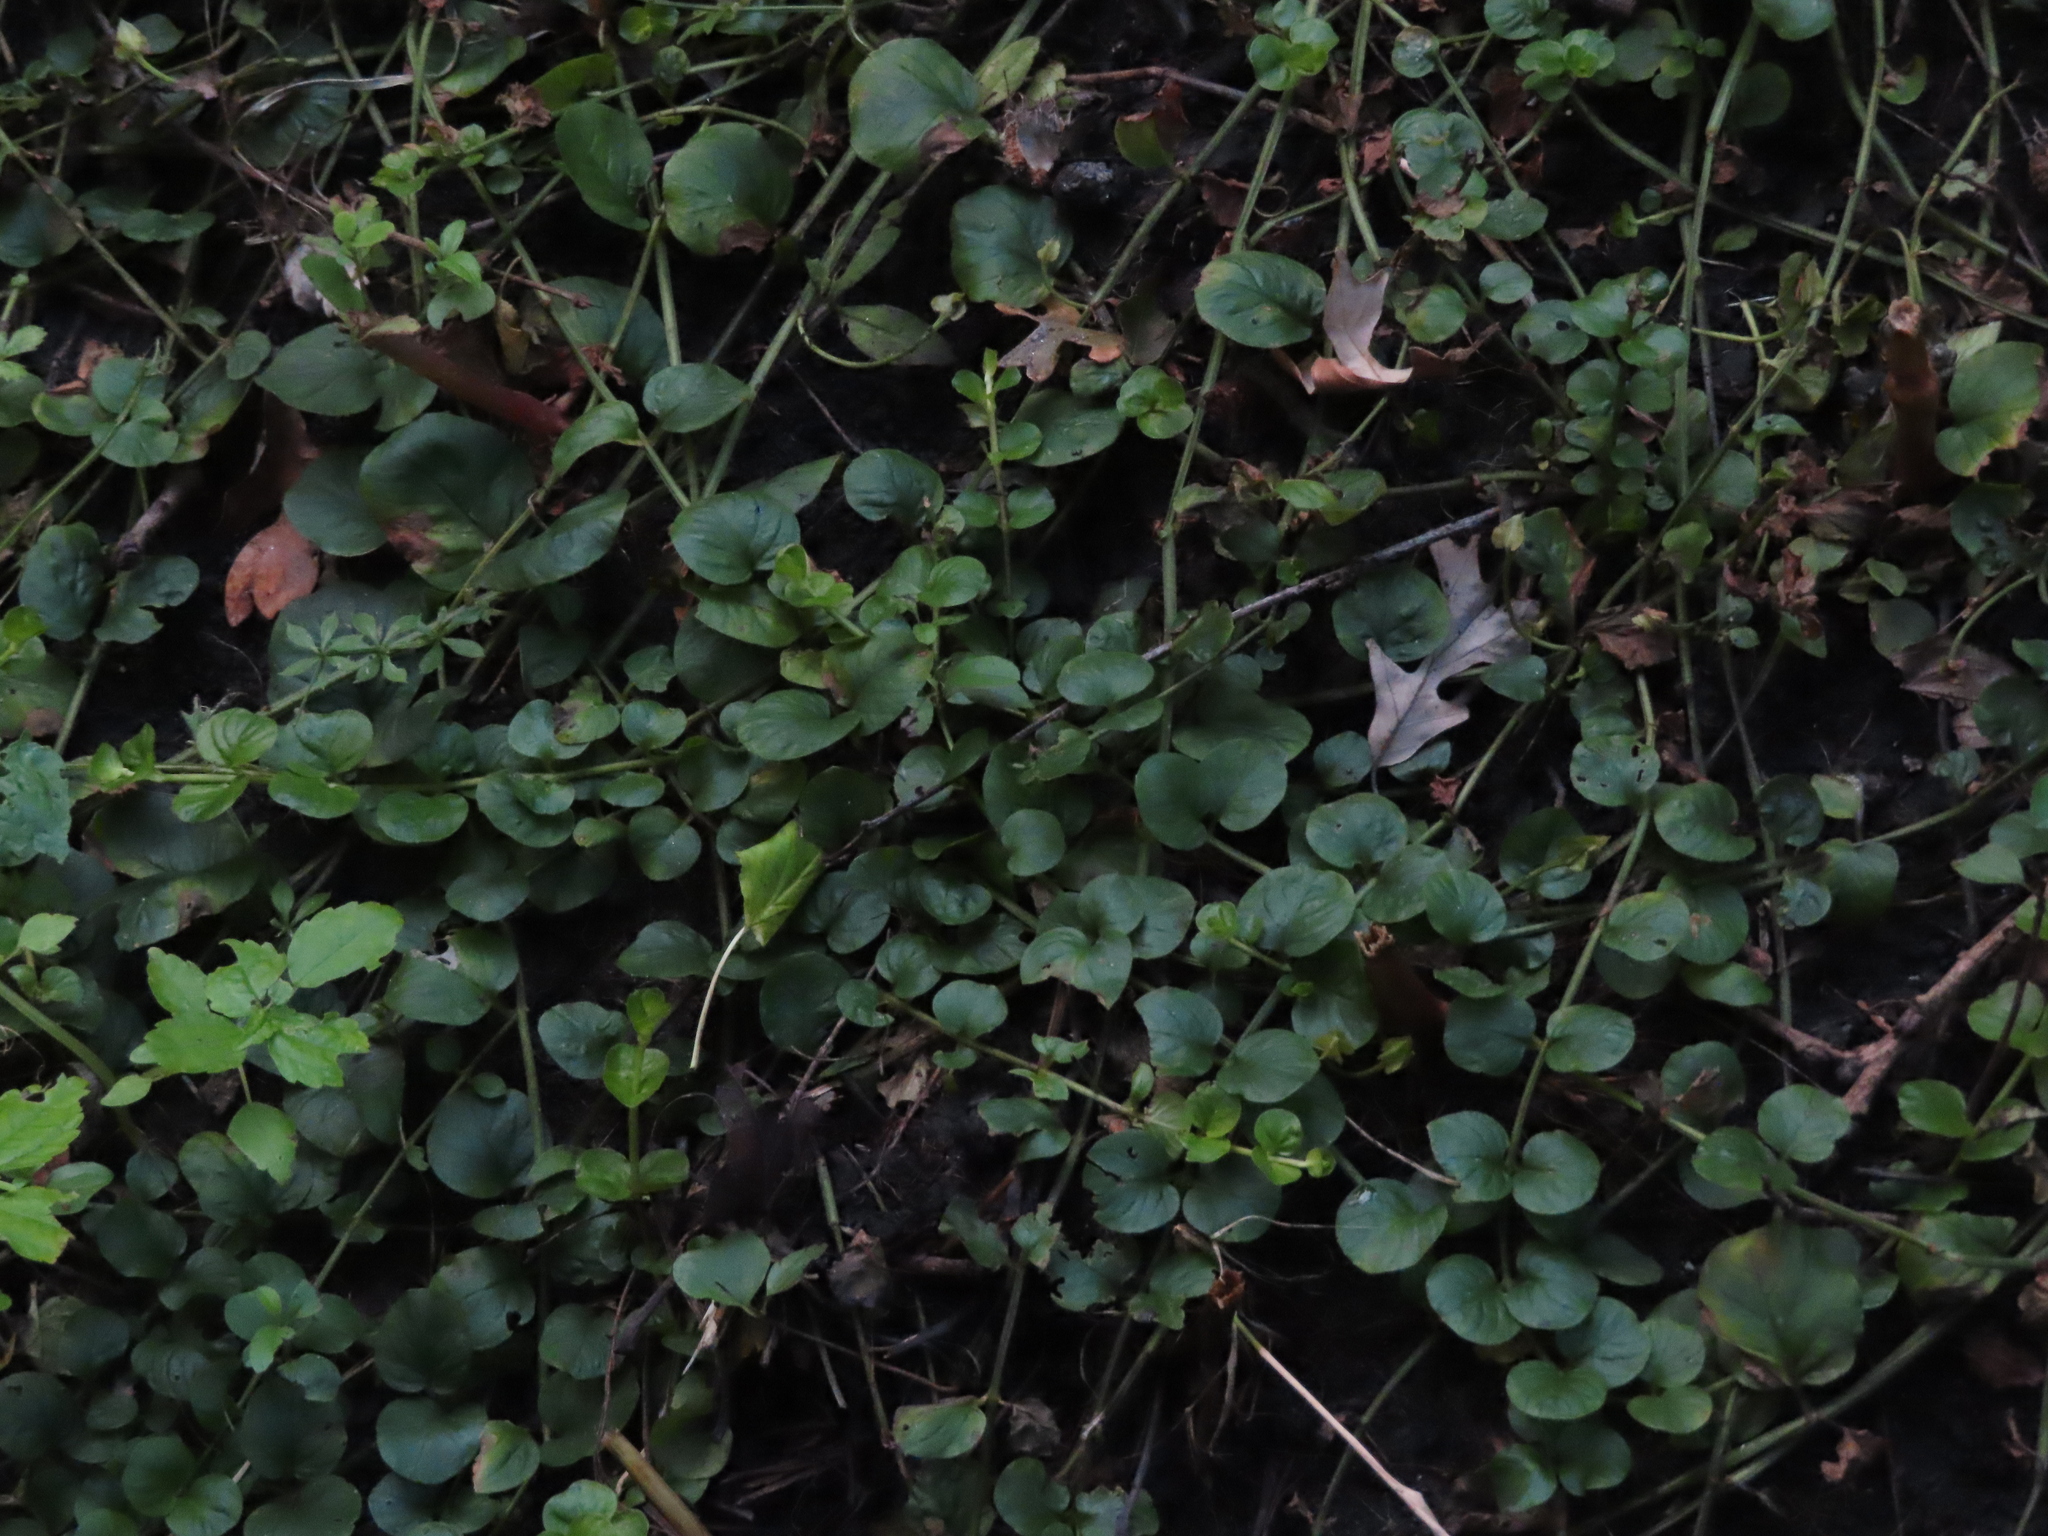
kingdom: Plantae
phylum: Tracheophyta
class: Magnoliopsida
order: Ericales
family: Primulaceae
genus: Lysimachia
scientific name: Lysimachia nummularia
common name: Moneywort
